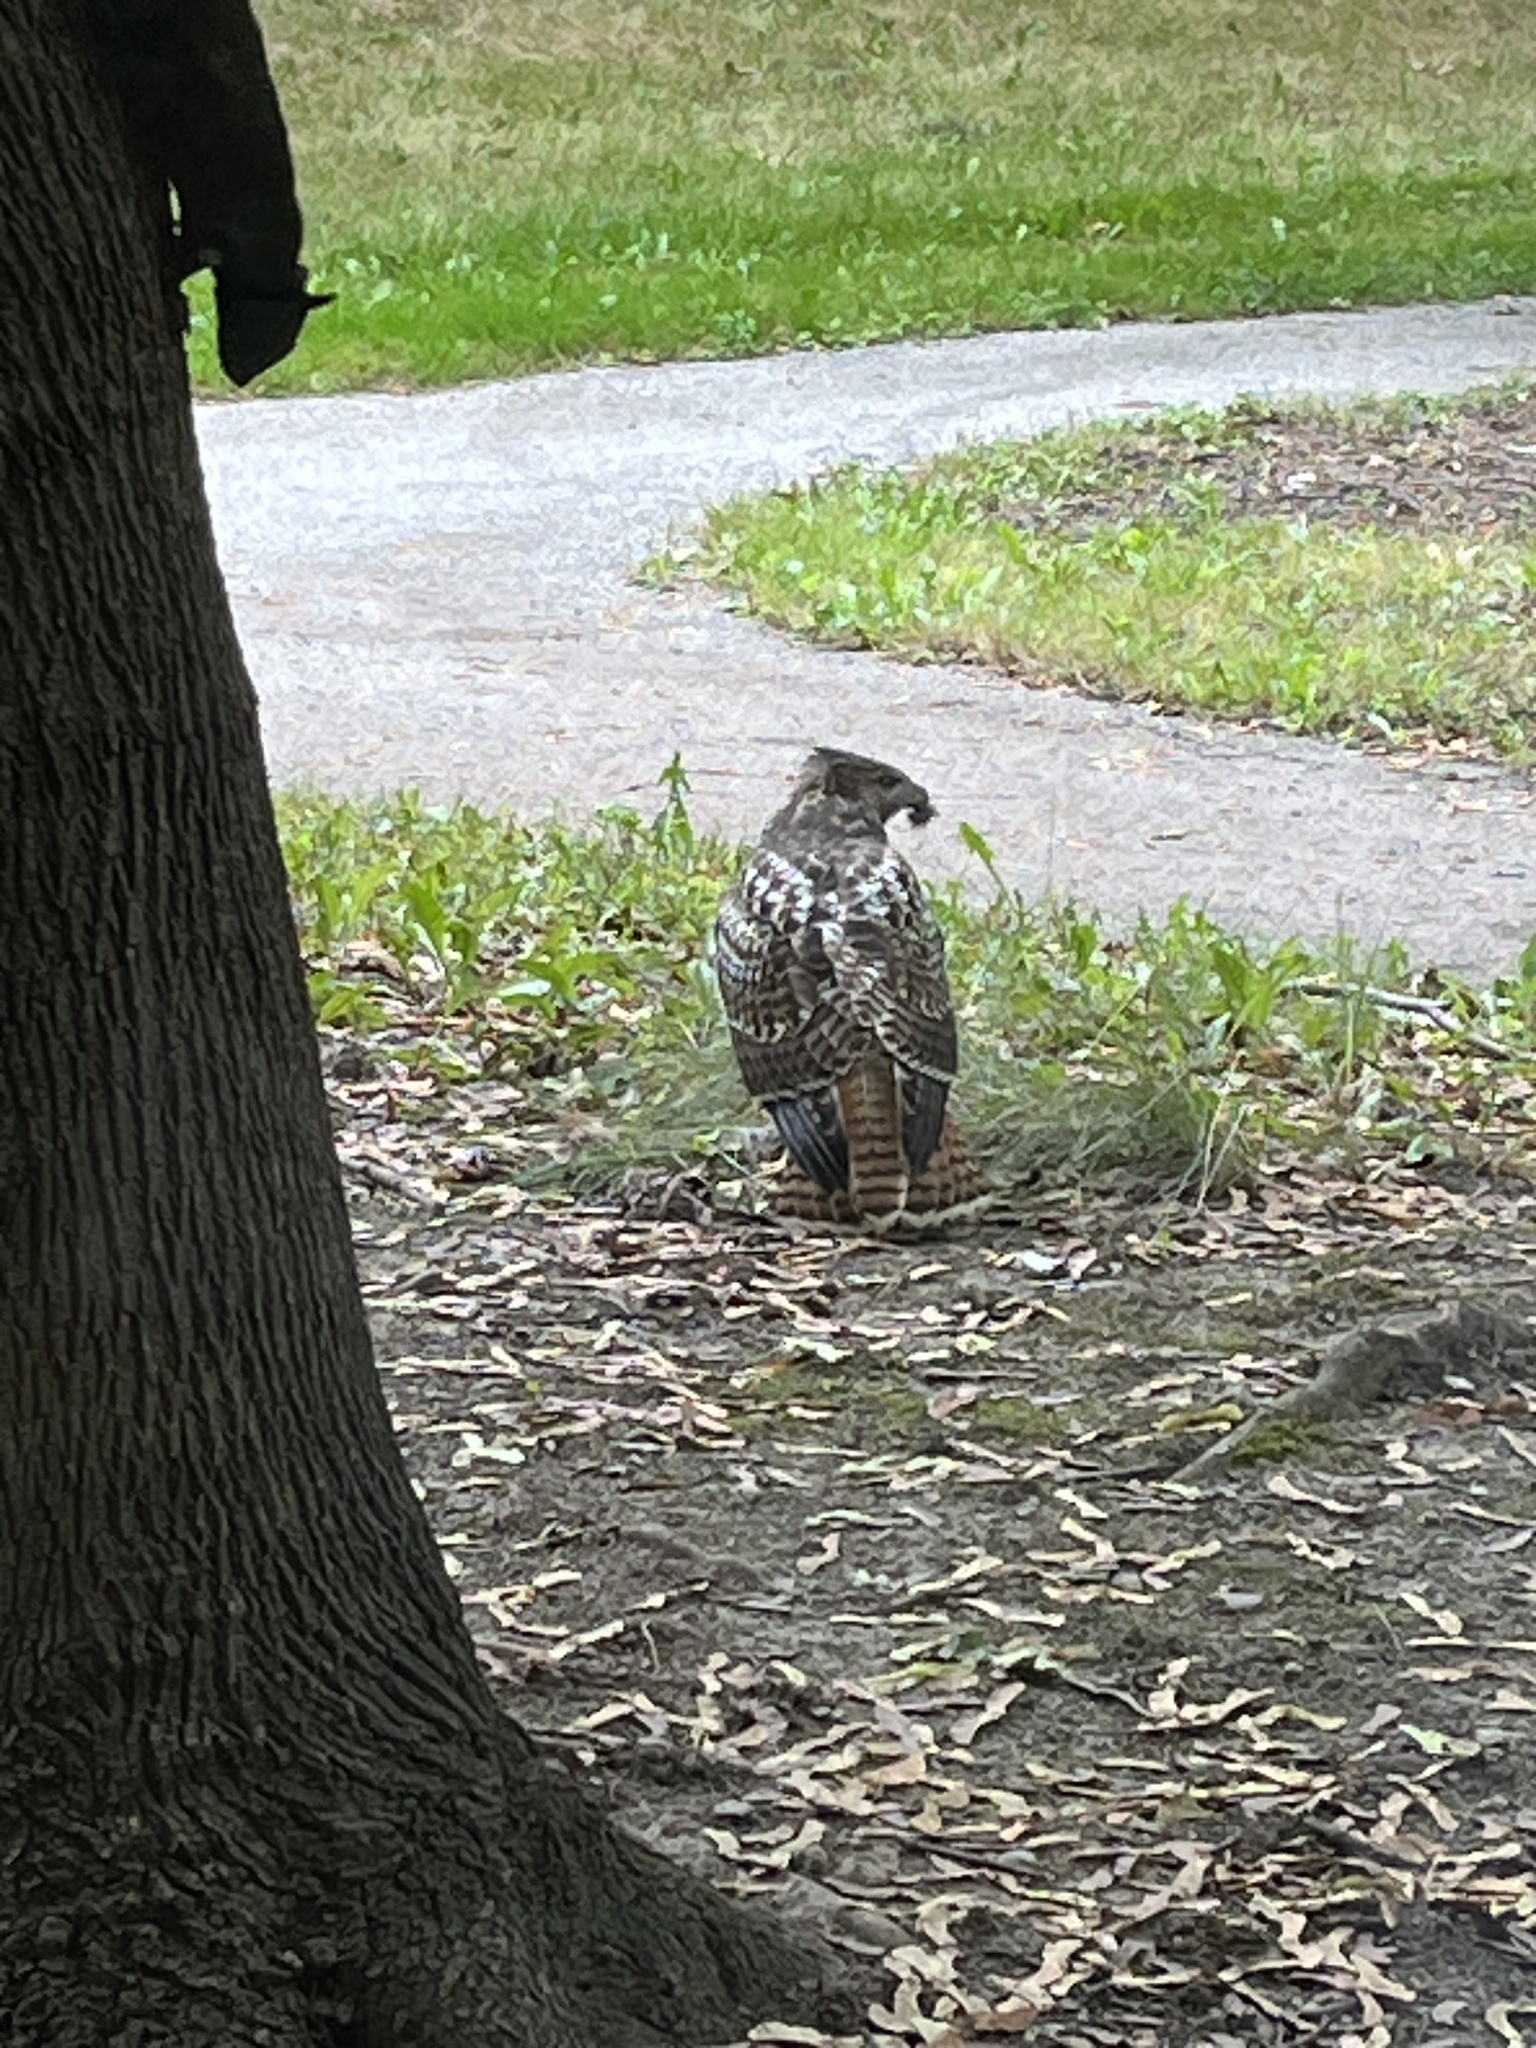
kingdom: Animalia
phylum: Chordata
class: Aves
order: Accipitriformes
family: Accipitridae
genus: Buteo
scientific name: Buteo jamaicensis
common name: Red-tailed hawk
